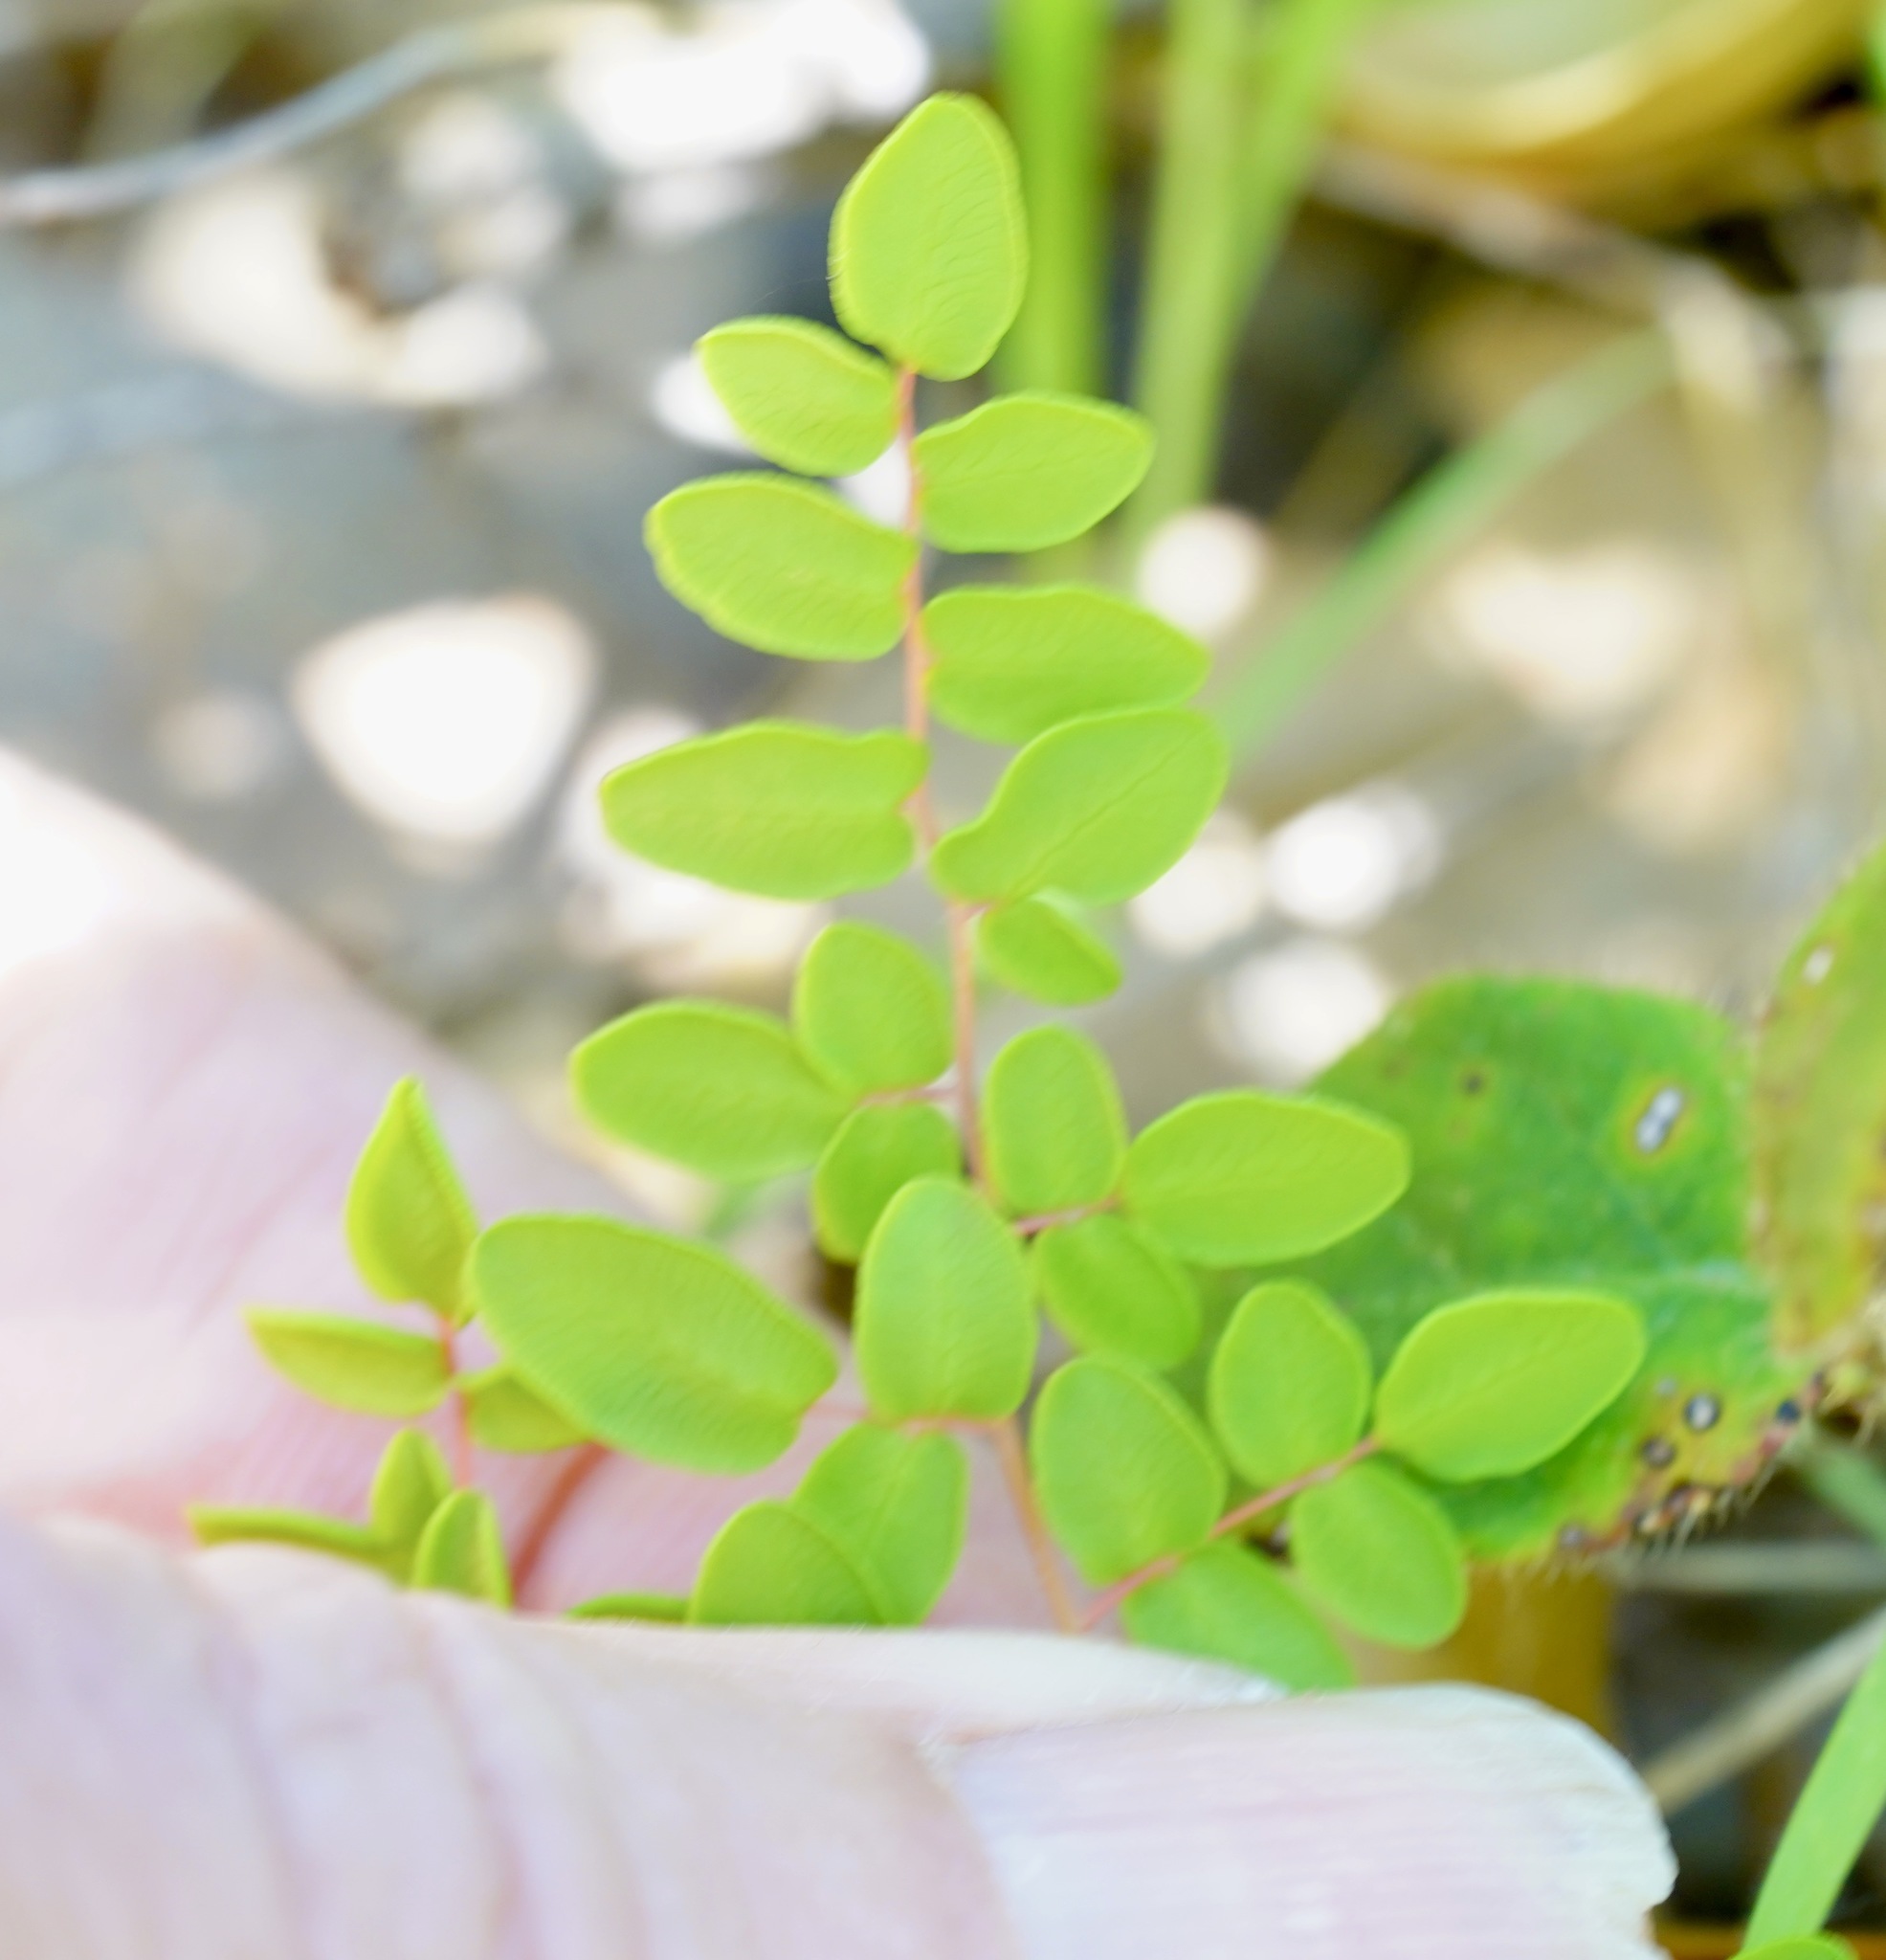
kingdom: Plantae
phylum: Tracheophyta
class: Polypodiopsida
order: Polypodiales
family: Pteridaceae
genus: Pellaea
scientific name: Pellaea andromedifolia
